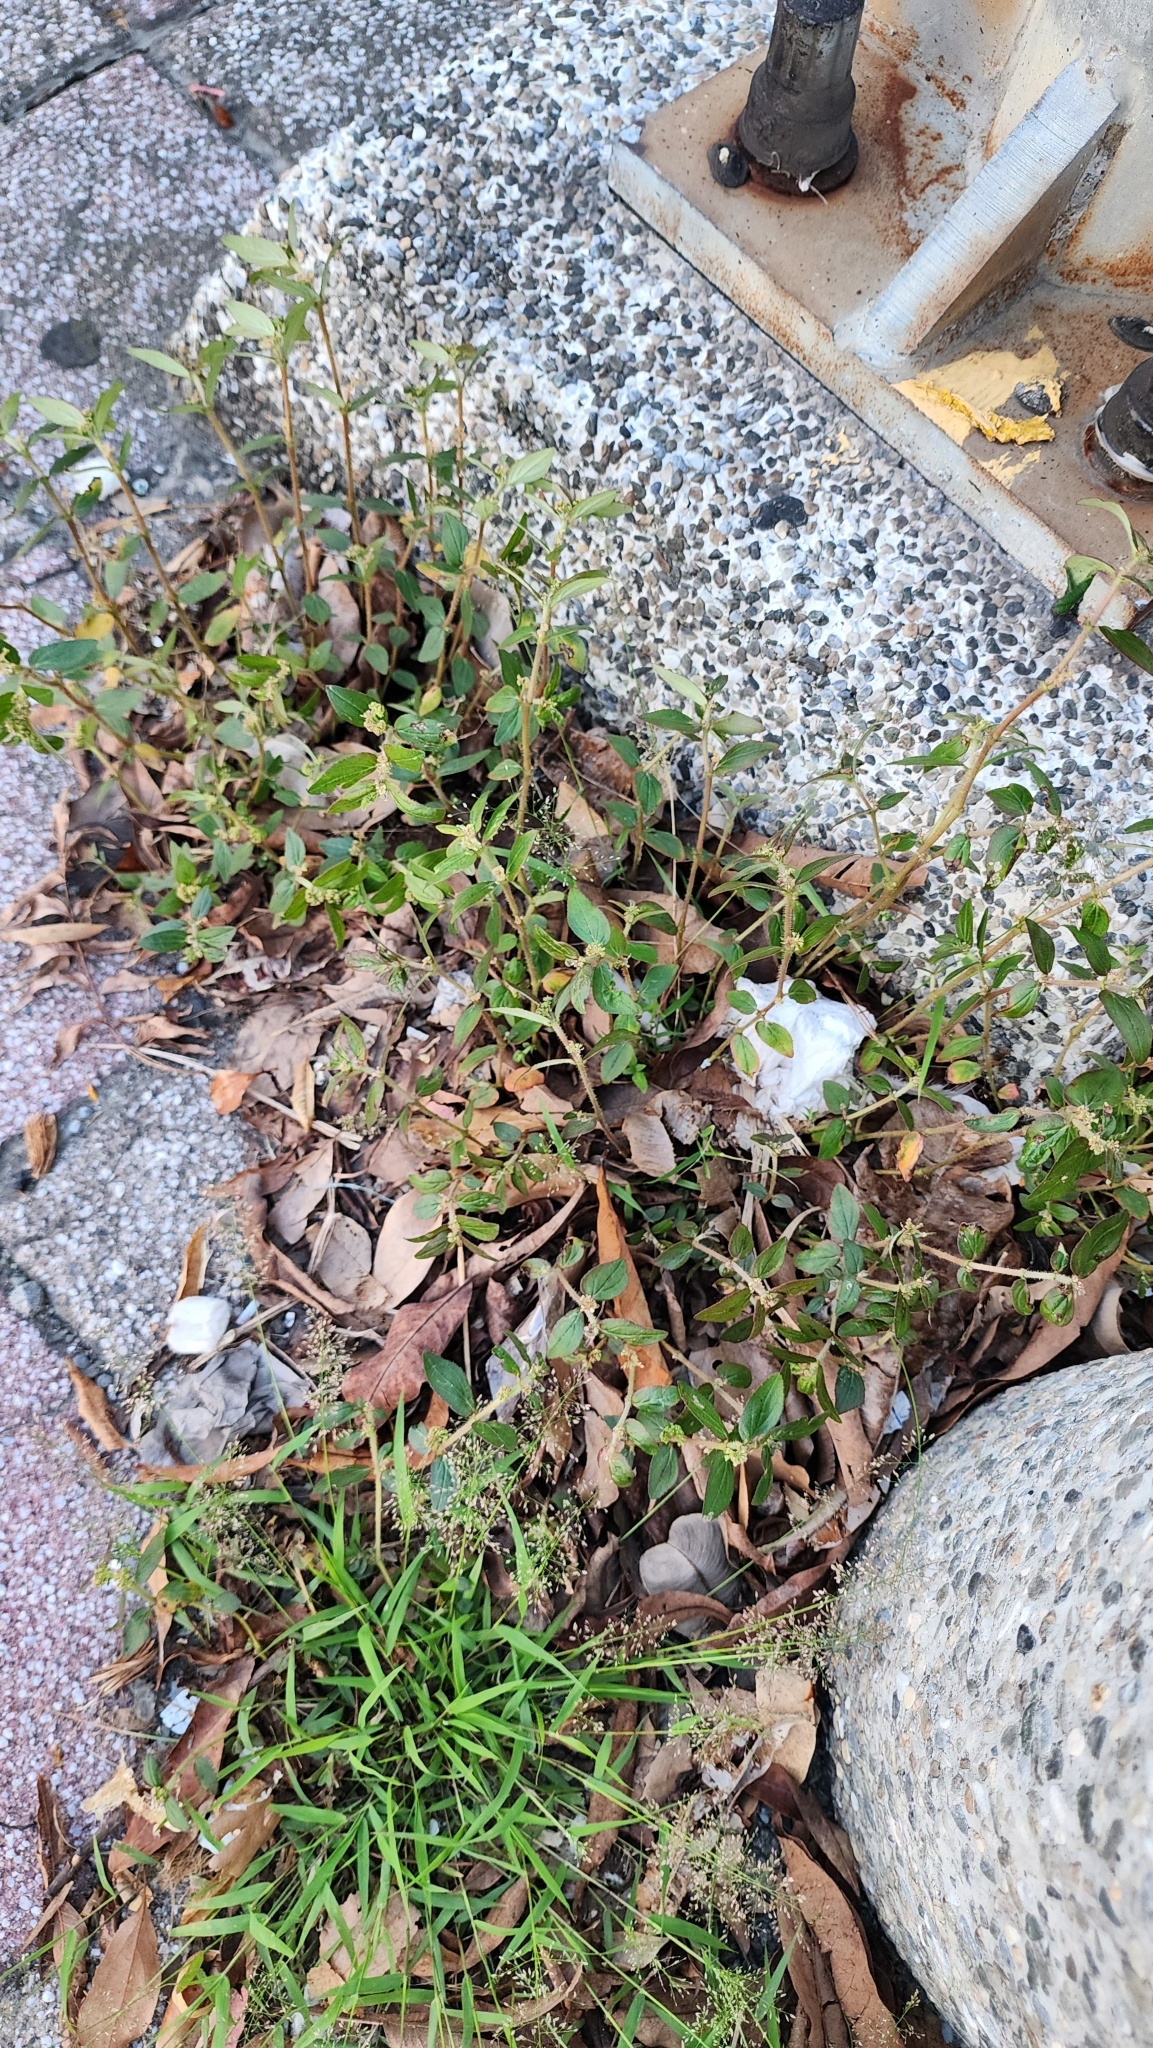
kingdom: Plantae
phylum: Tracheophyta
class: Magnoliopsida
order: Malpighiales
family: Euphorbiaceae
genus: Euphorbia
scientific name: Euphorbia hirta
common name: Pillpod sandmat
